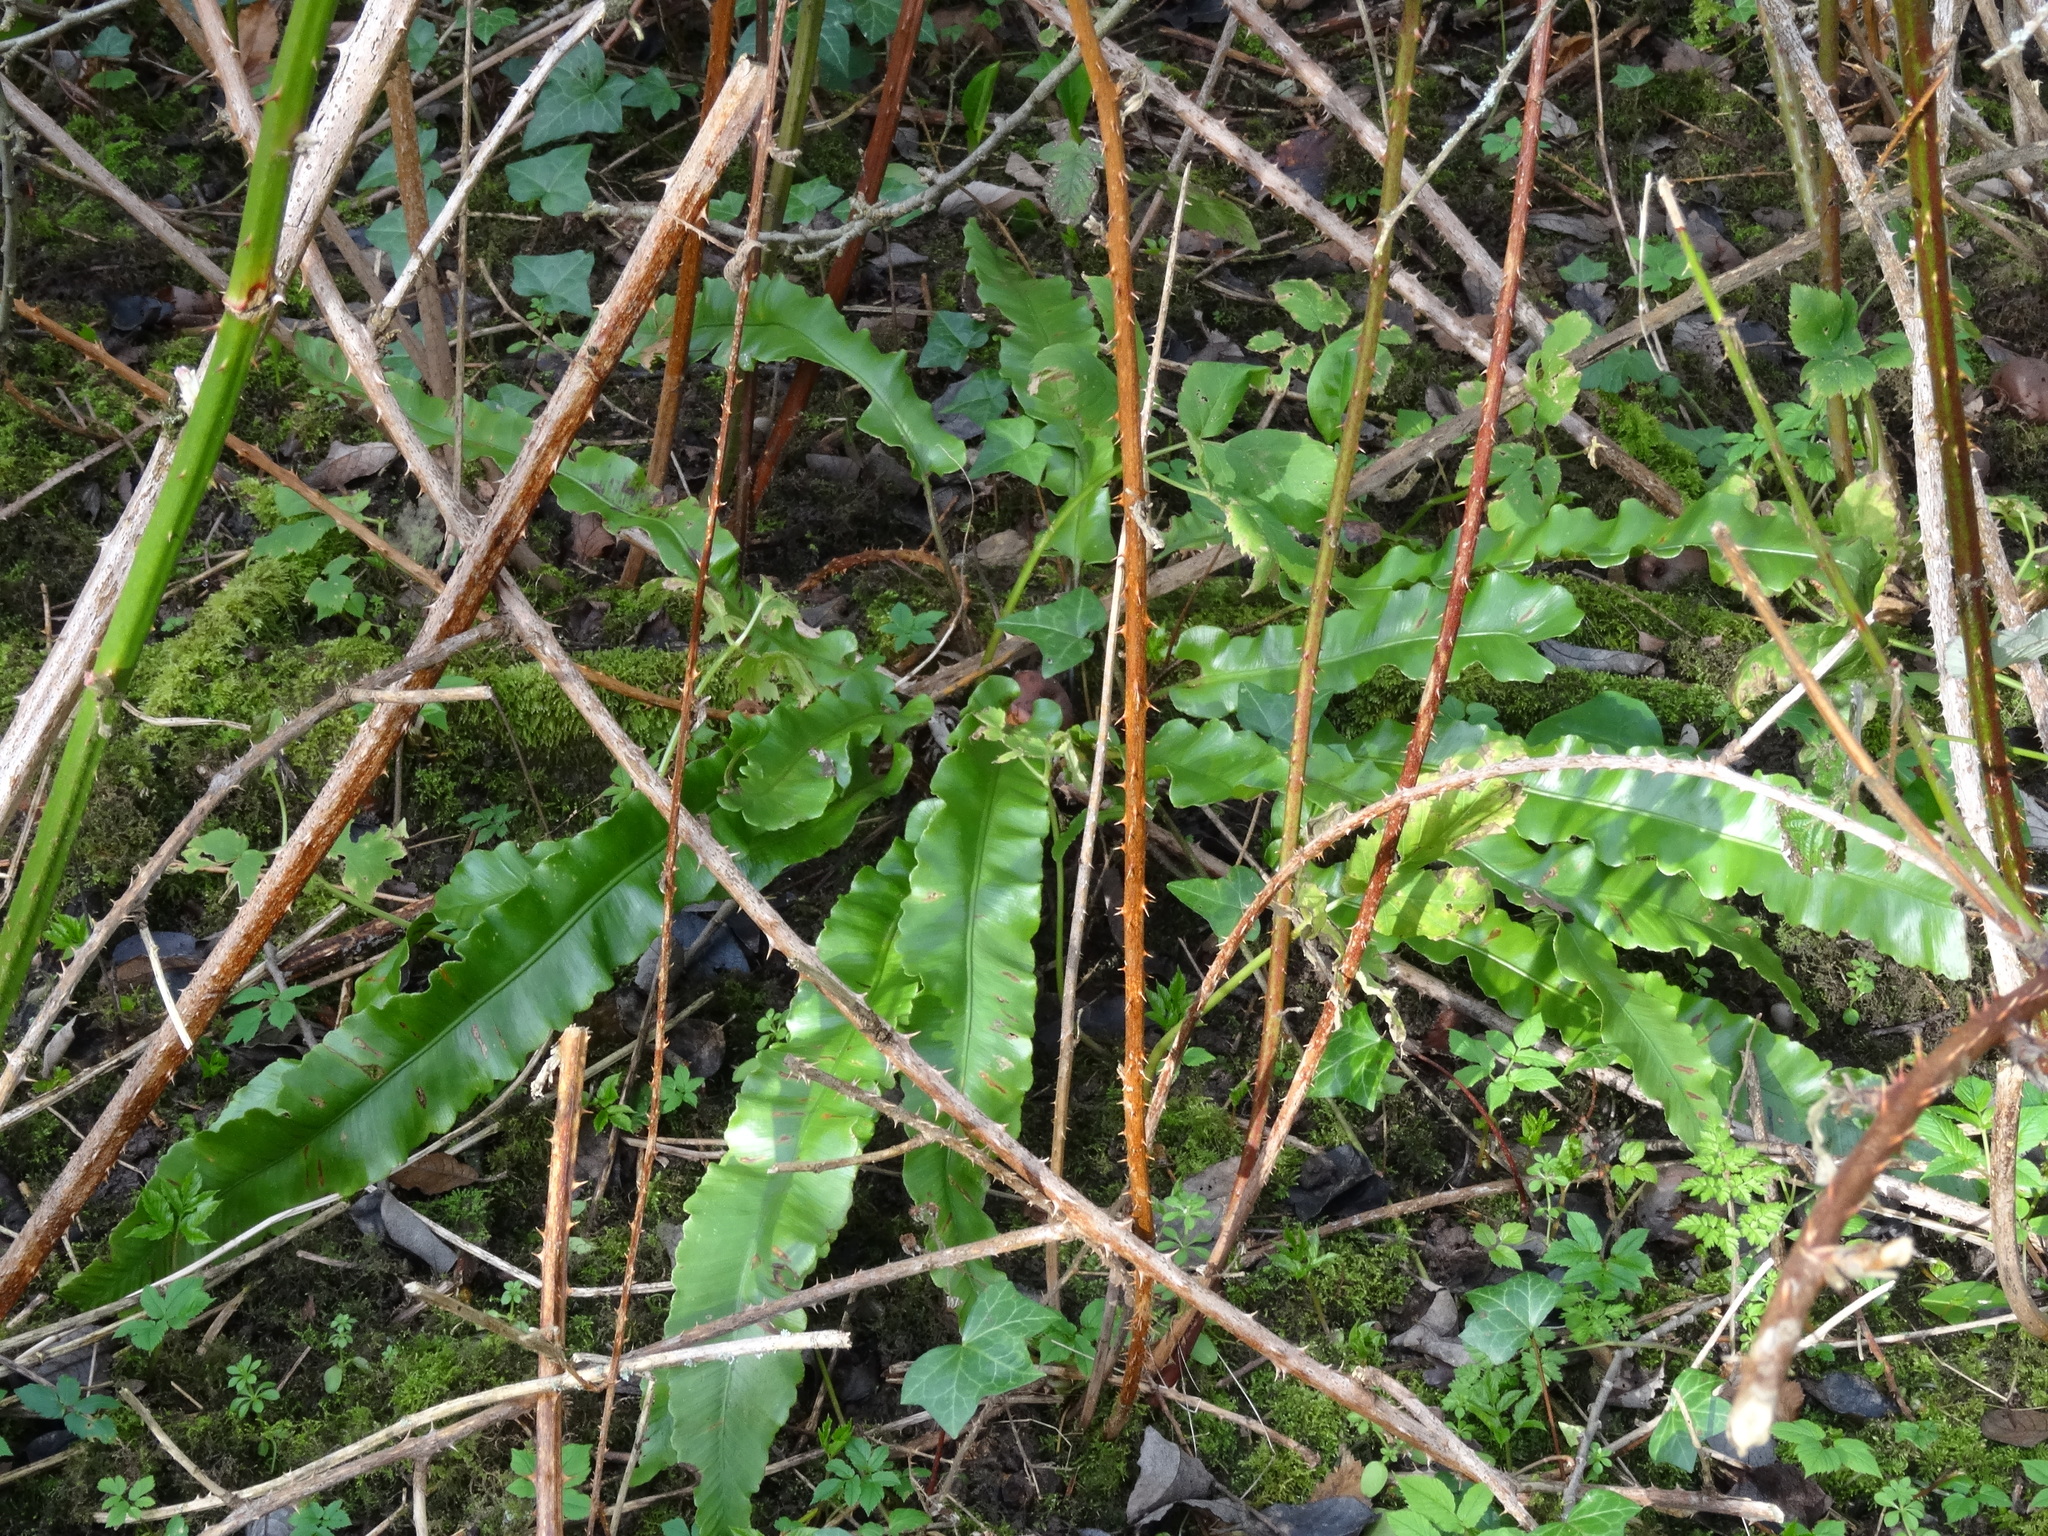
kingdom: Plantae
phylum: Tracheophyta
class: Polypodiopsida
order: Polypodiales
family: Aspleniaceae
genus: Asplenium
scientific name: Asplenium scolopendrium
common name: Hart's-tongue fern
